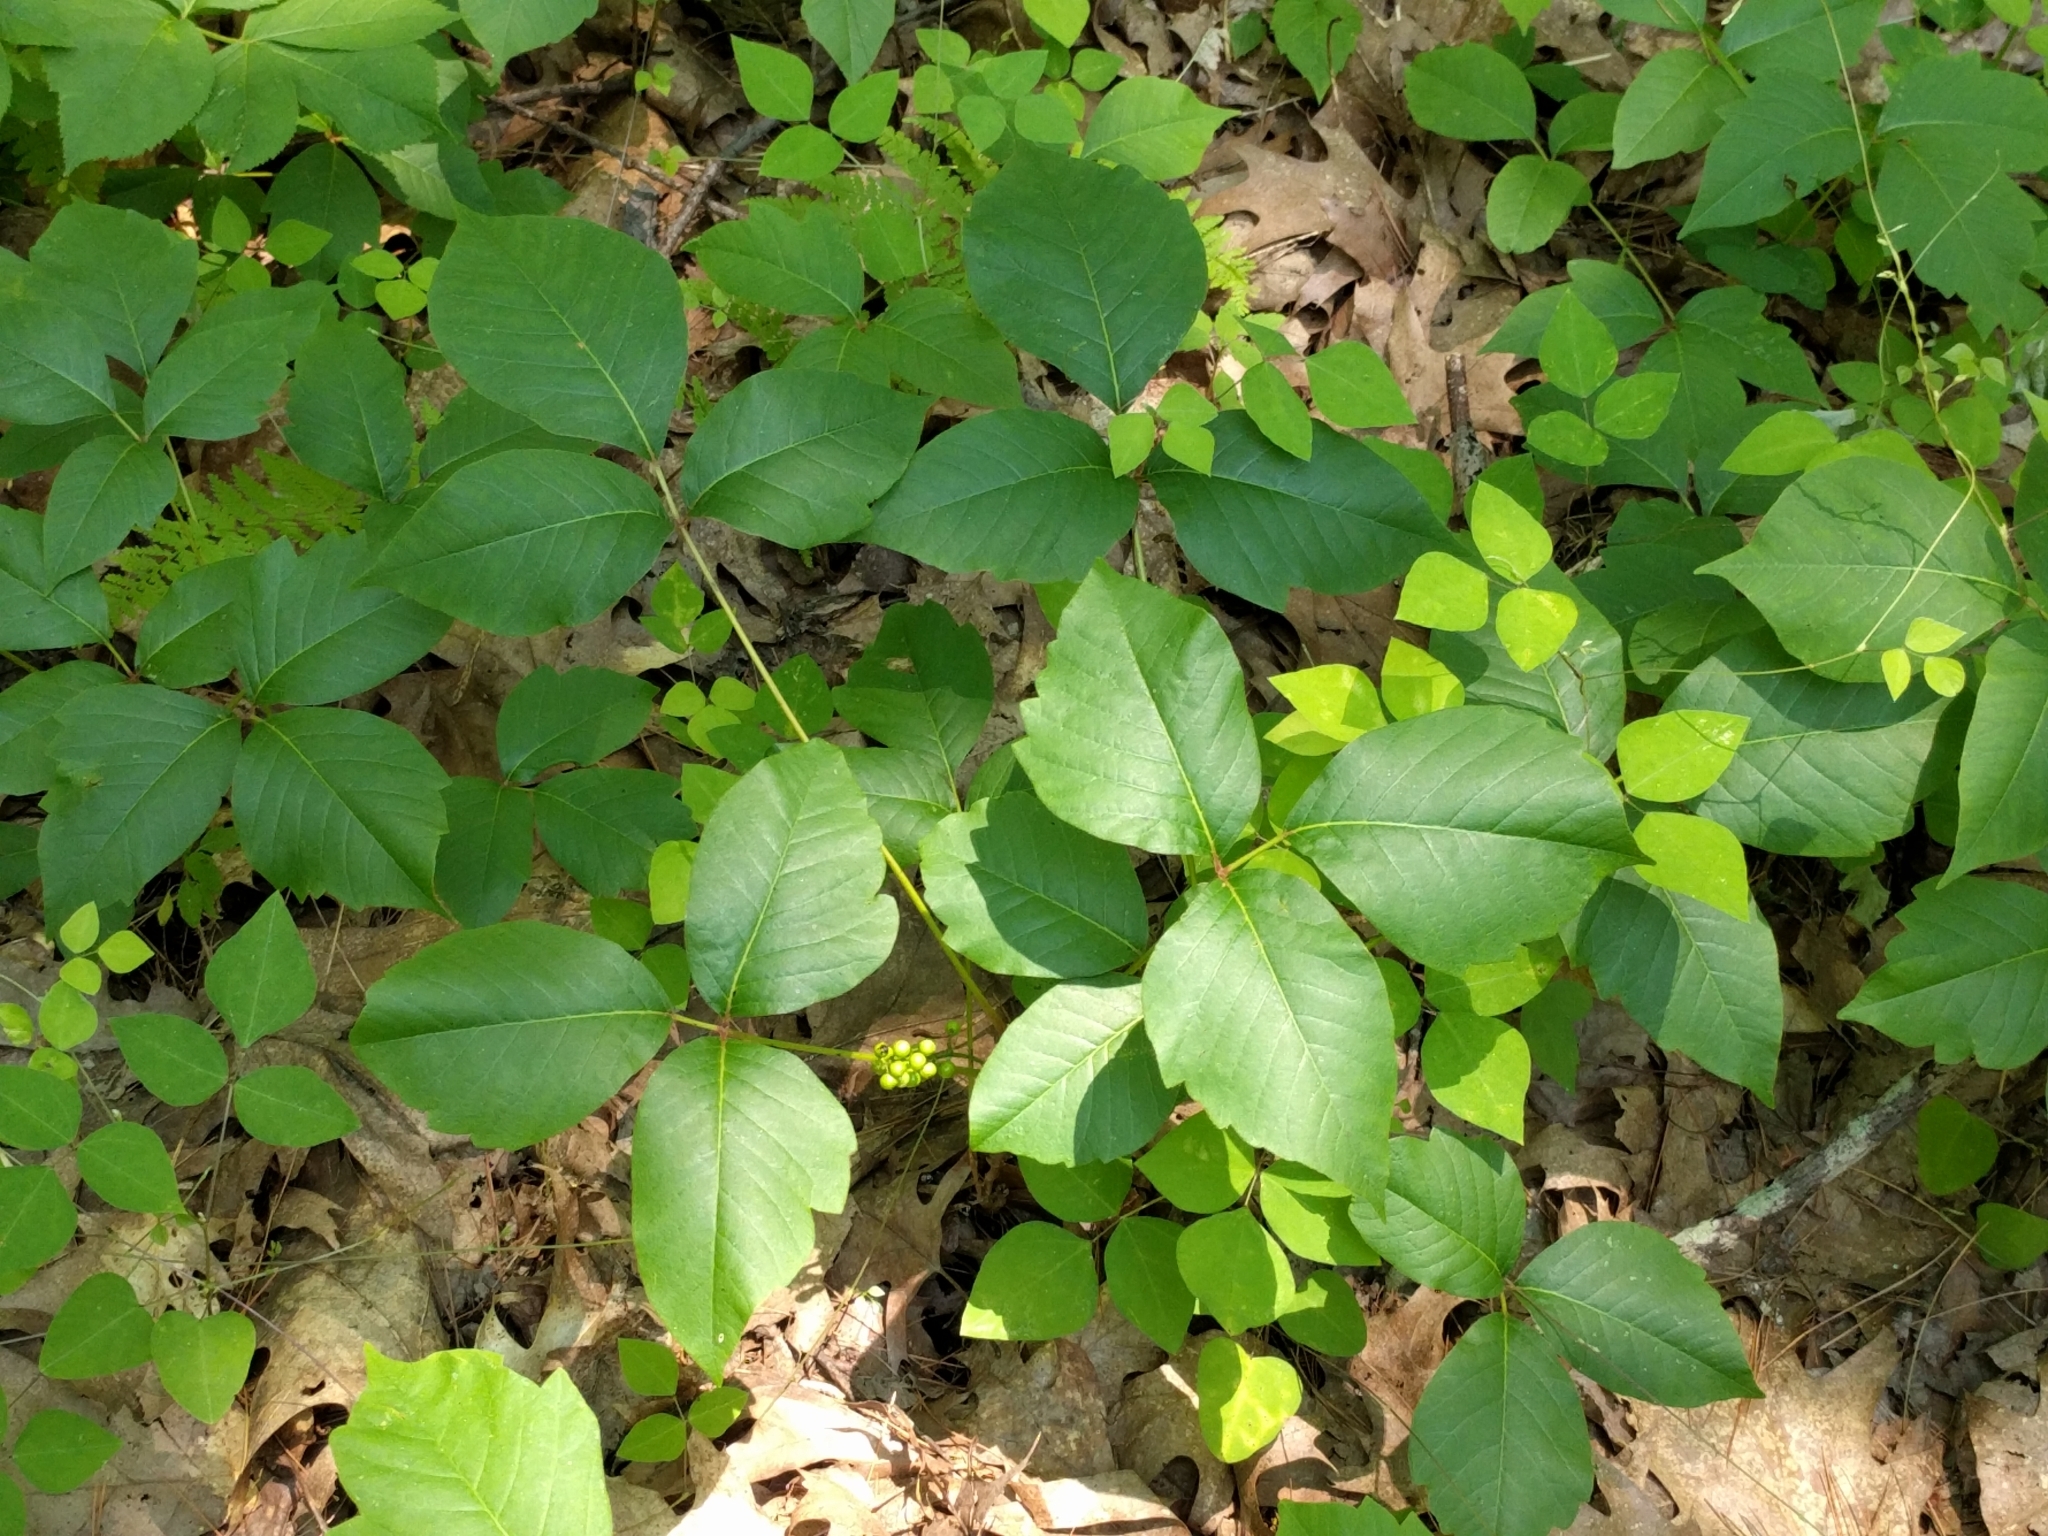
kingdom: Plantae
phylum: Tracheophyta
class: Magnoliopsida
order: Sapindales
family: Anacardiaceae
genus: Toxicodendron
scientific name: Toxicodendron radicans
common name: Poison ivy
